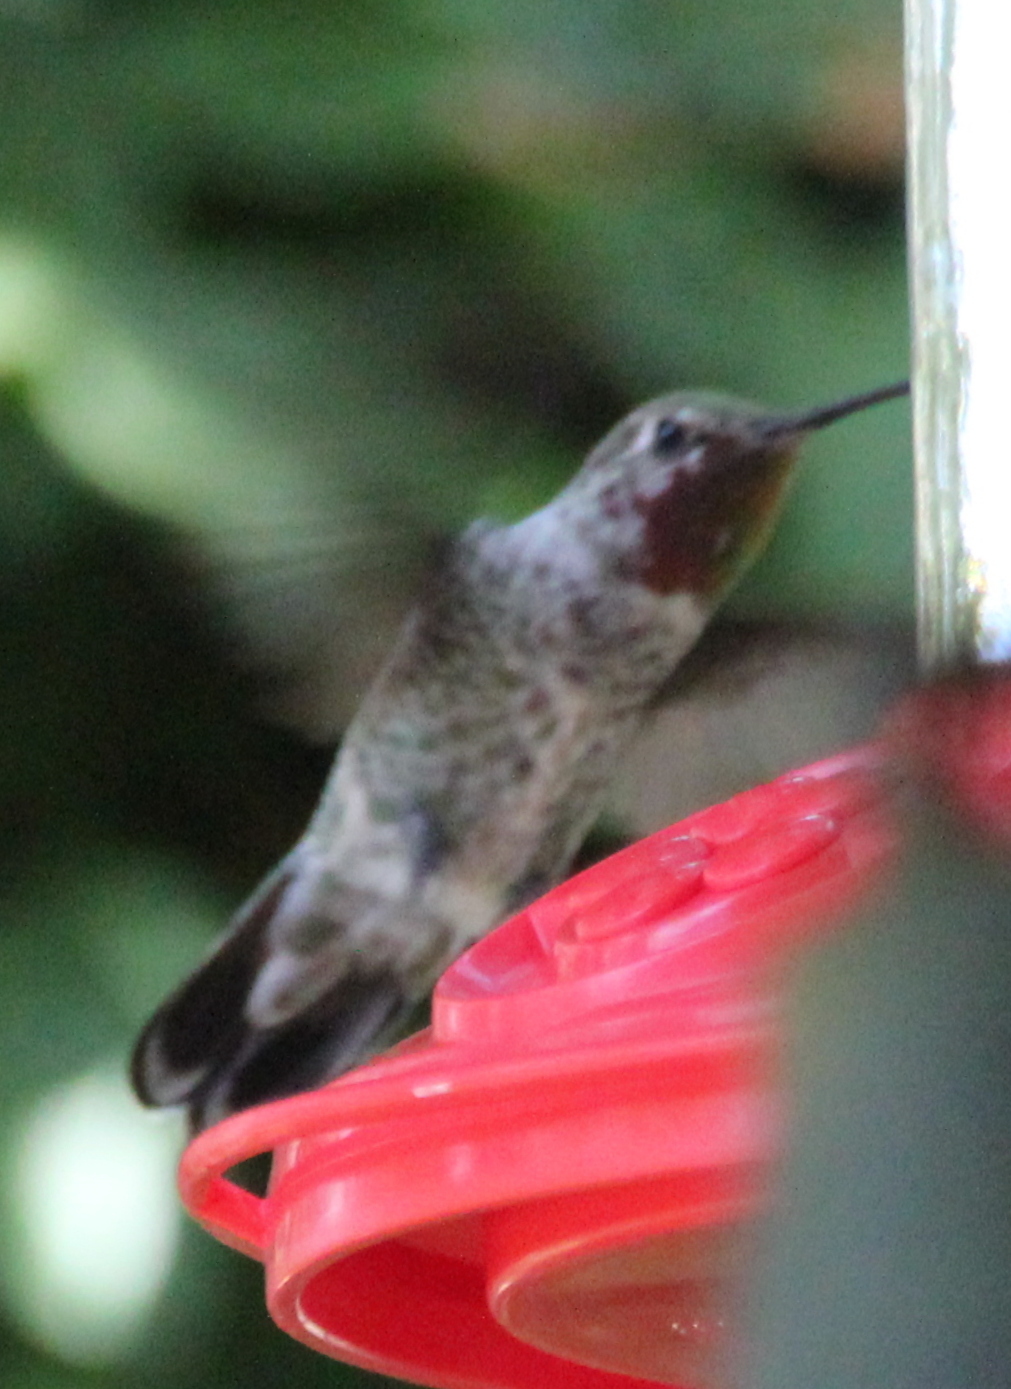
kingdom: Animalia
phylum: Chordata
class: Aves
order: Apodiformes
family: Trochilidae
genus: Calypte
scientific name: Calypte anna
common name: Anna's hummingbird
